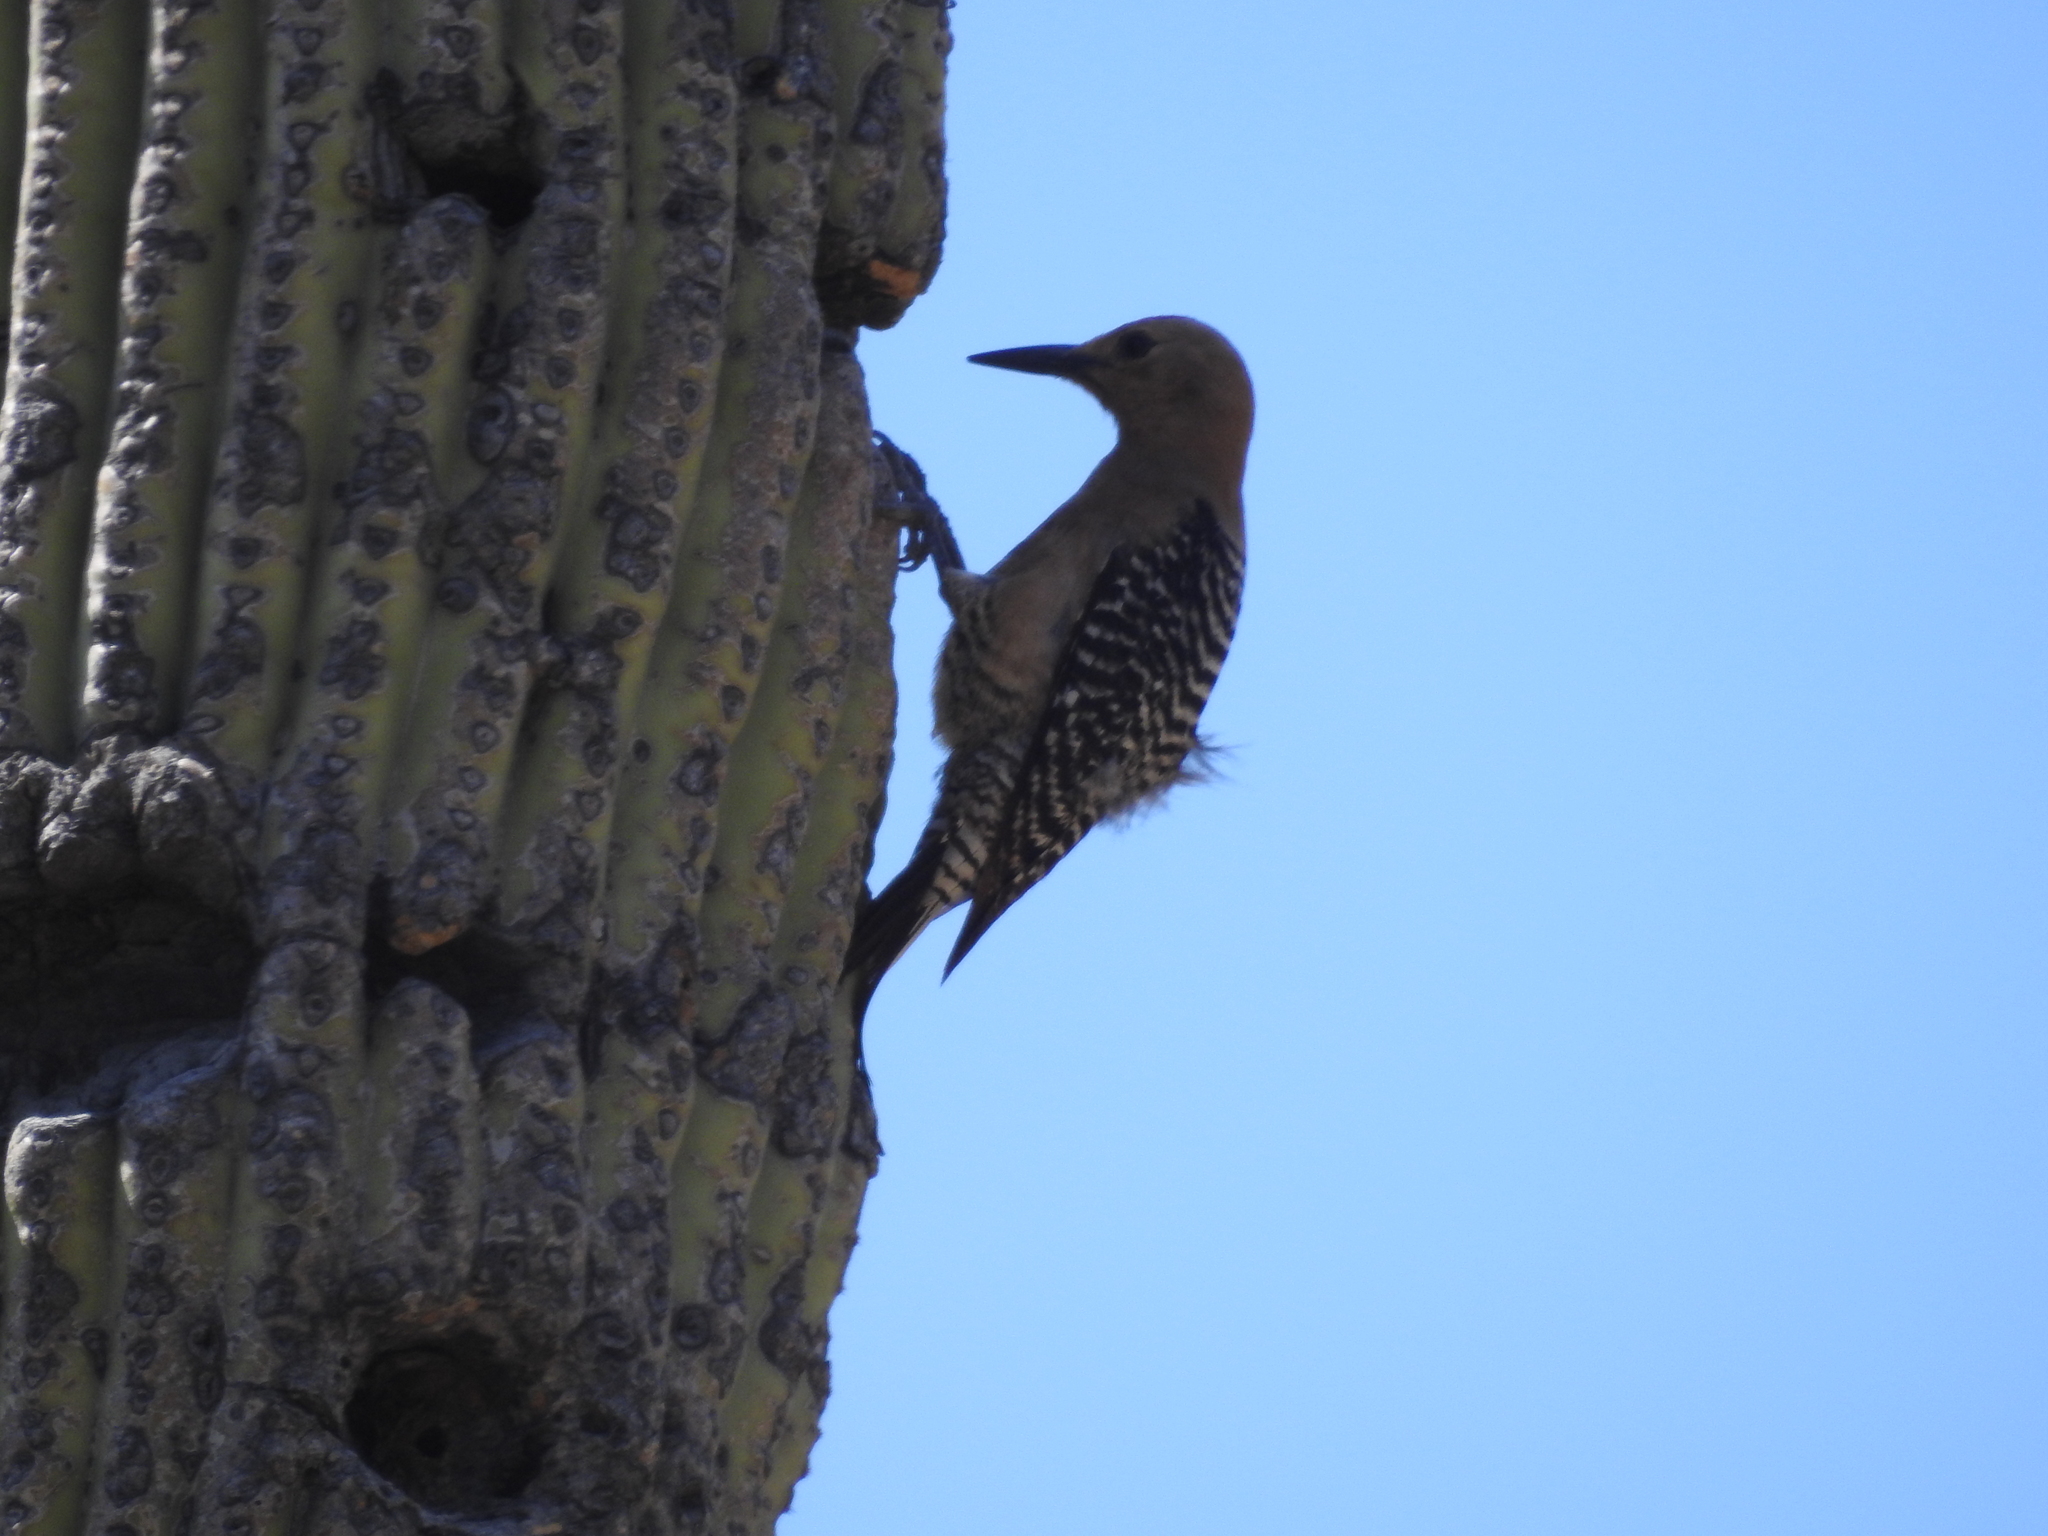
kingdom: Animalia
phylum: Chordata
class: Aves
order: Piciformes
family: Picidae
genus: Melanerpes
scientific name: Melanerpes uropygialis
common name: Gila woodpecker
